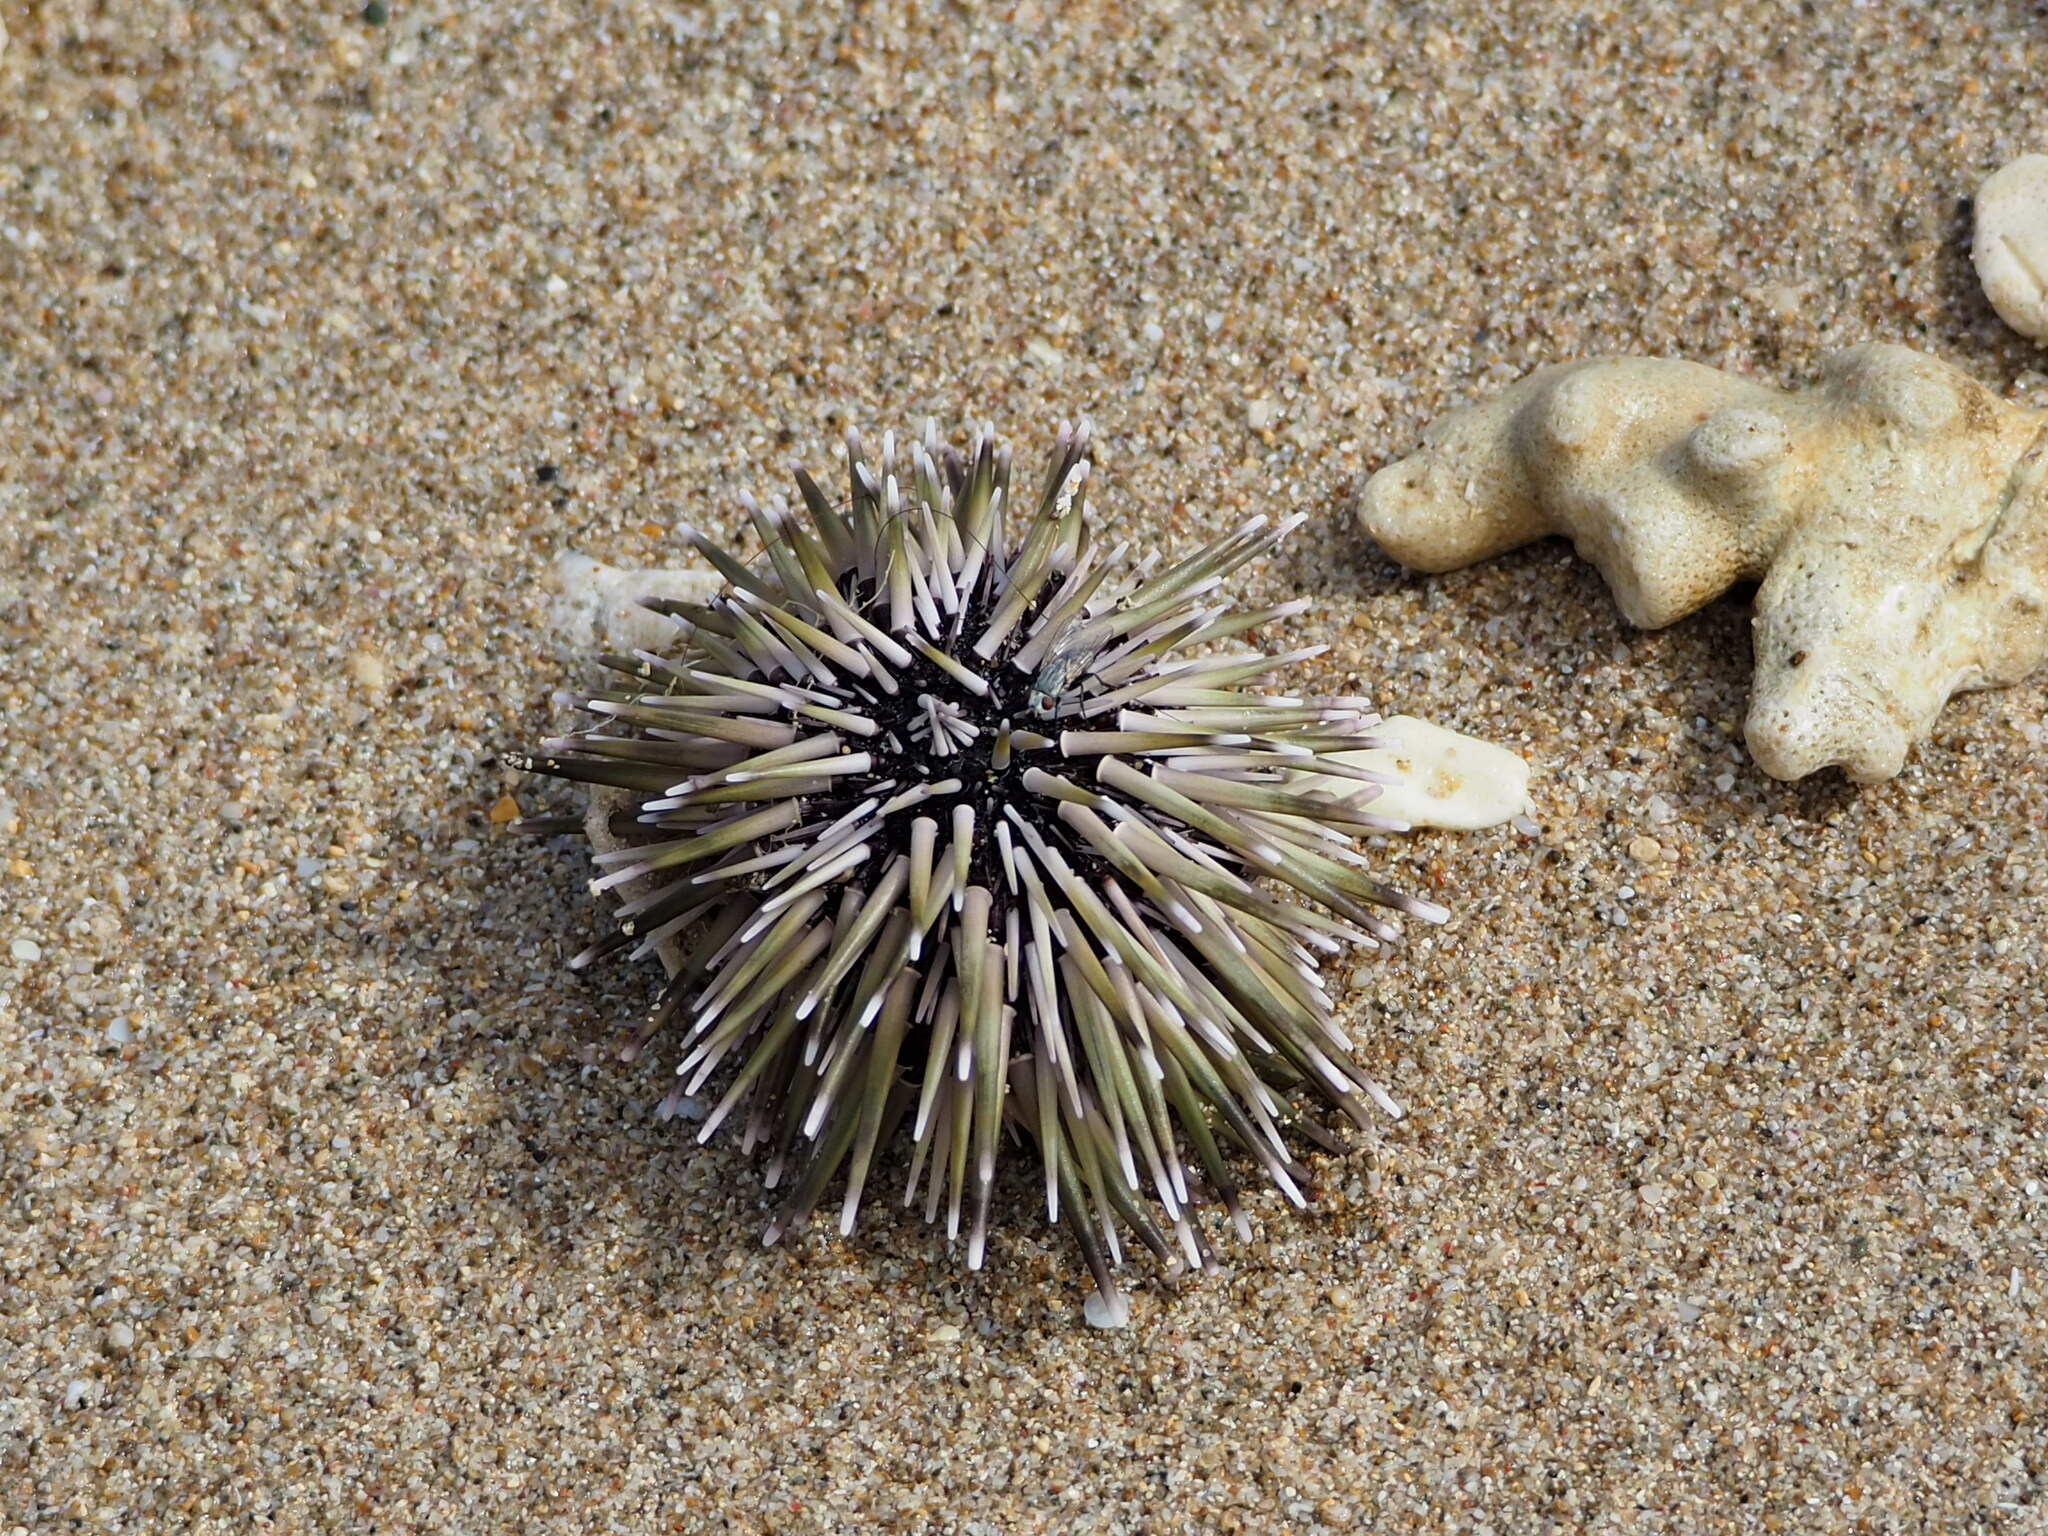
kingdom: Animalia
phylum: Echinodermata
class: Echinoidea
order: Camarodonta
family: Echinometridae
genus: Echinometra
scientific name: Echinometra mathaei
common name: Rock-boring urchin
